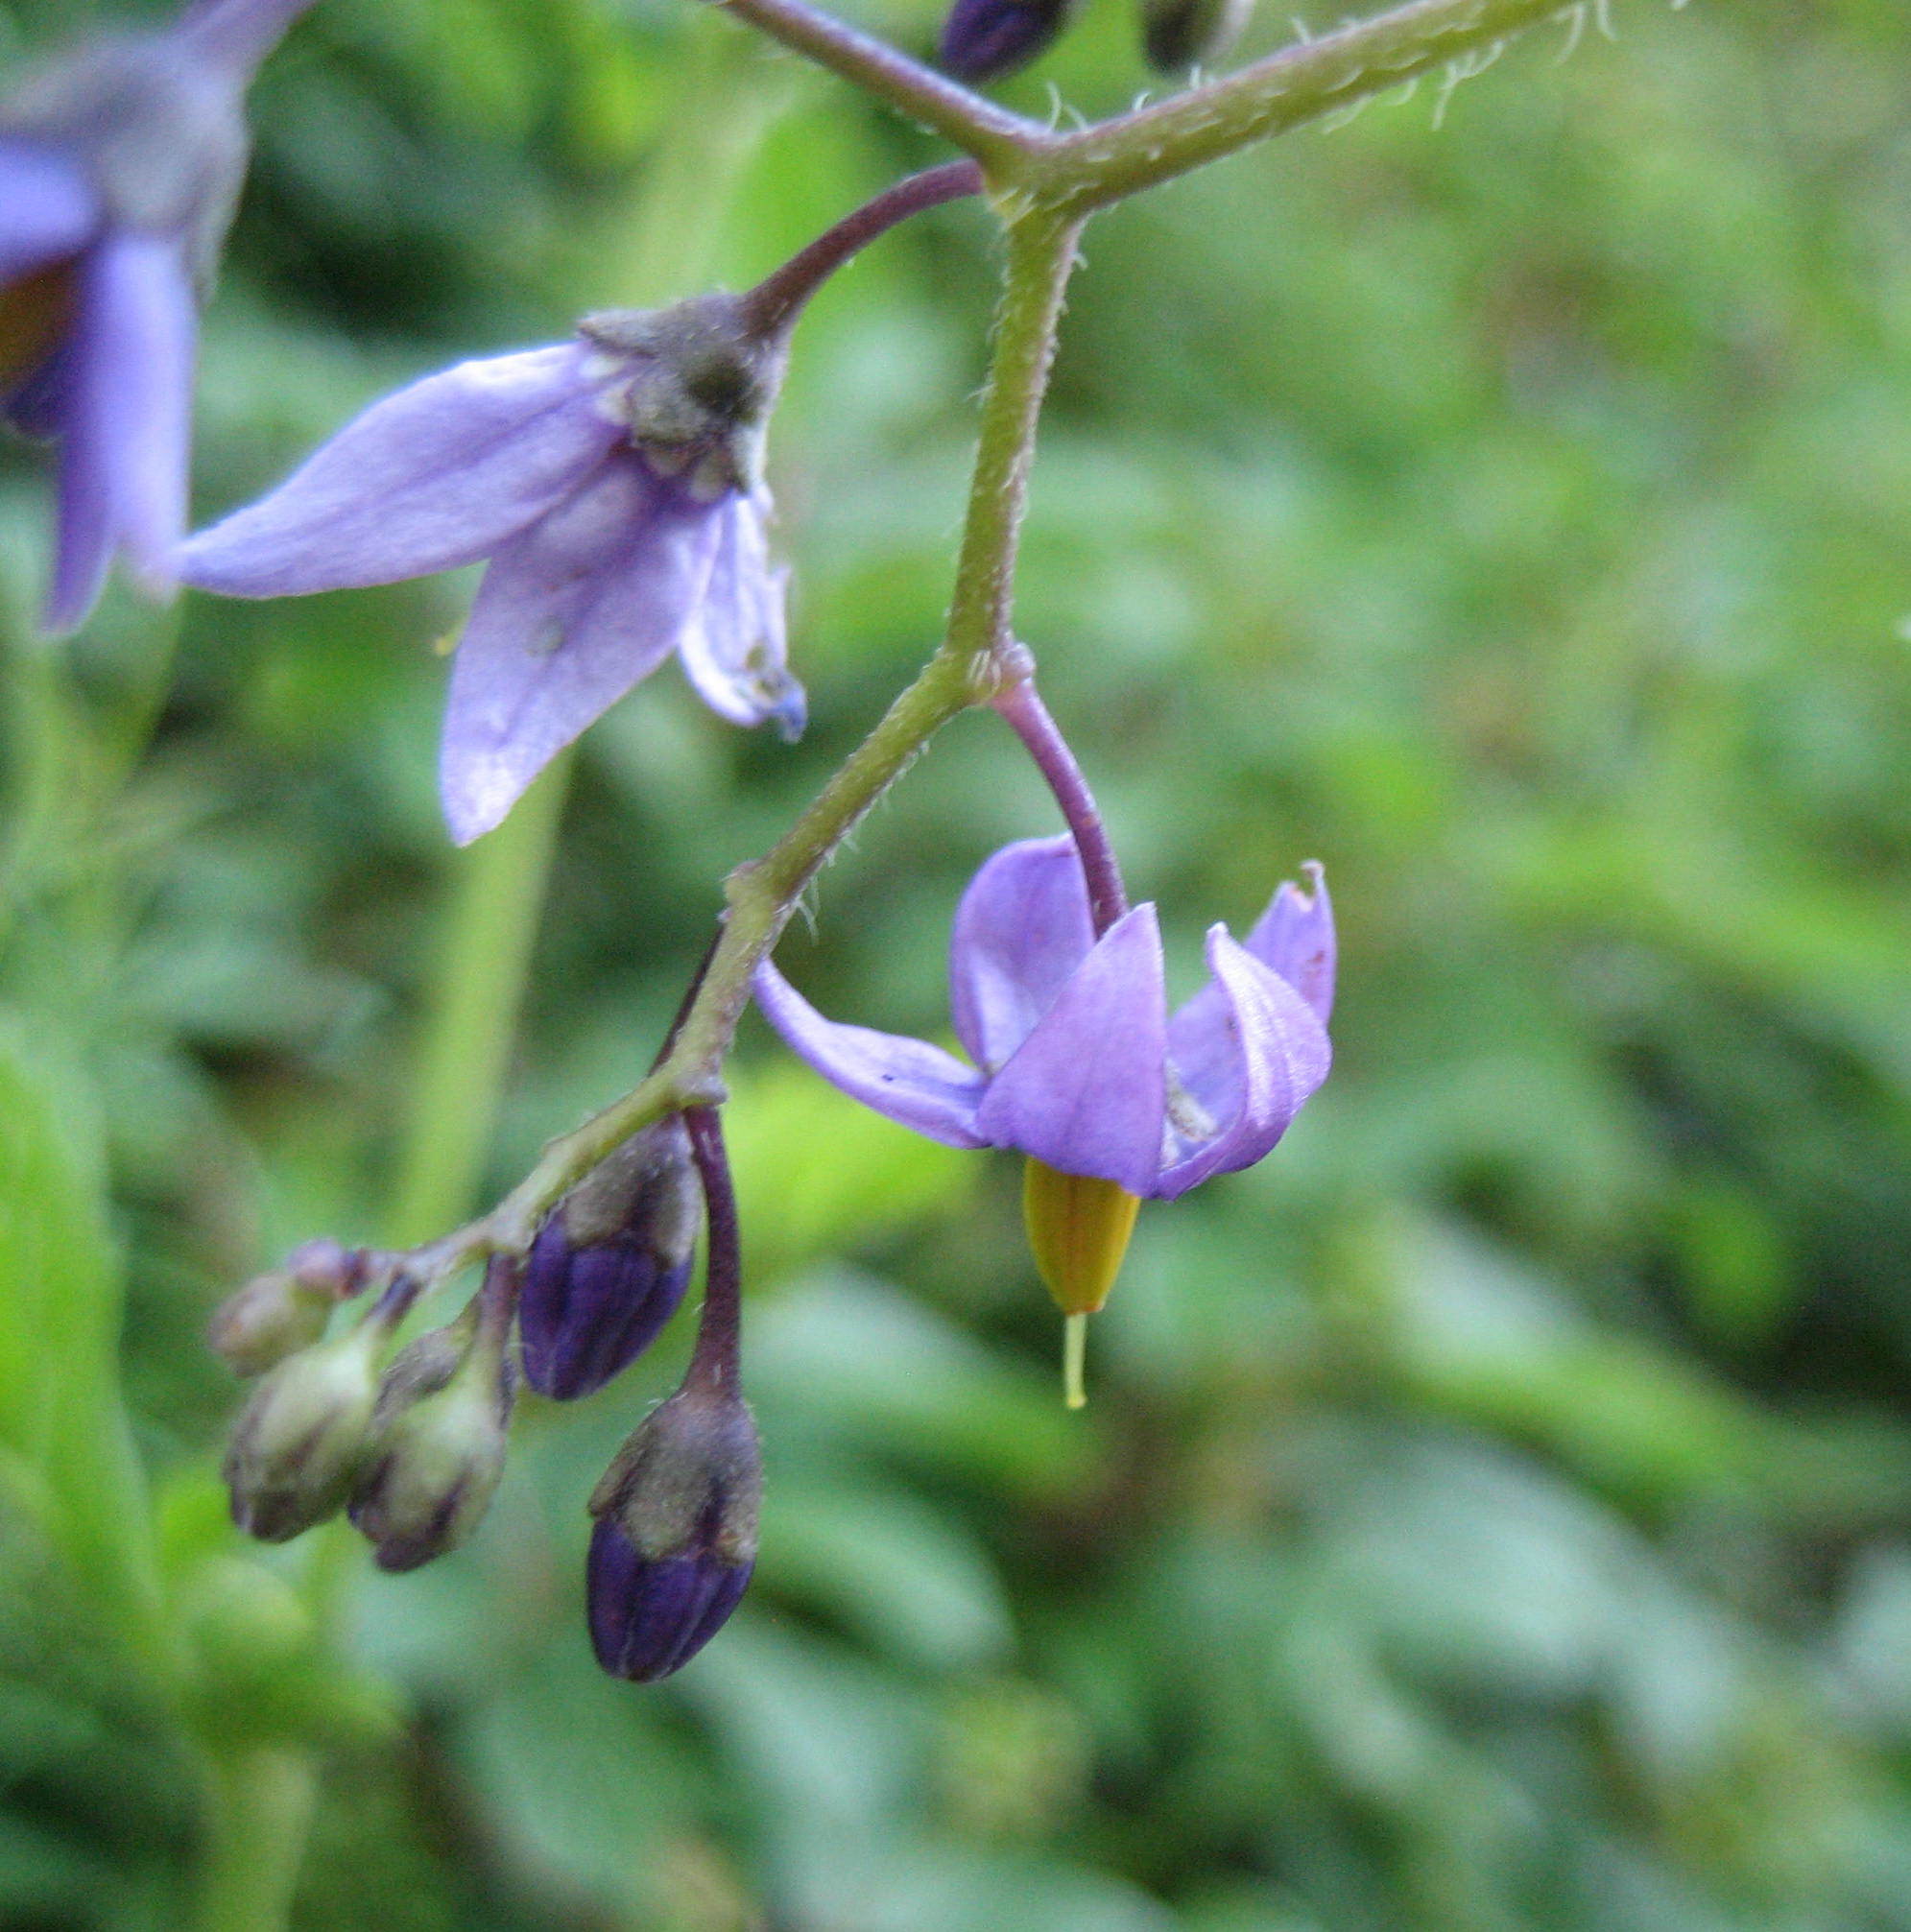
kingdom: Plantae
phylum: Tracheophyta
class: Magnoliopsida
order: Solanales
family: Solanaceae
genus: Solanum
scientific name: Solanum dulcamara
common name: Climbing nightshade
